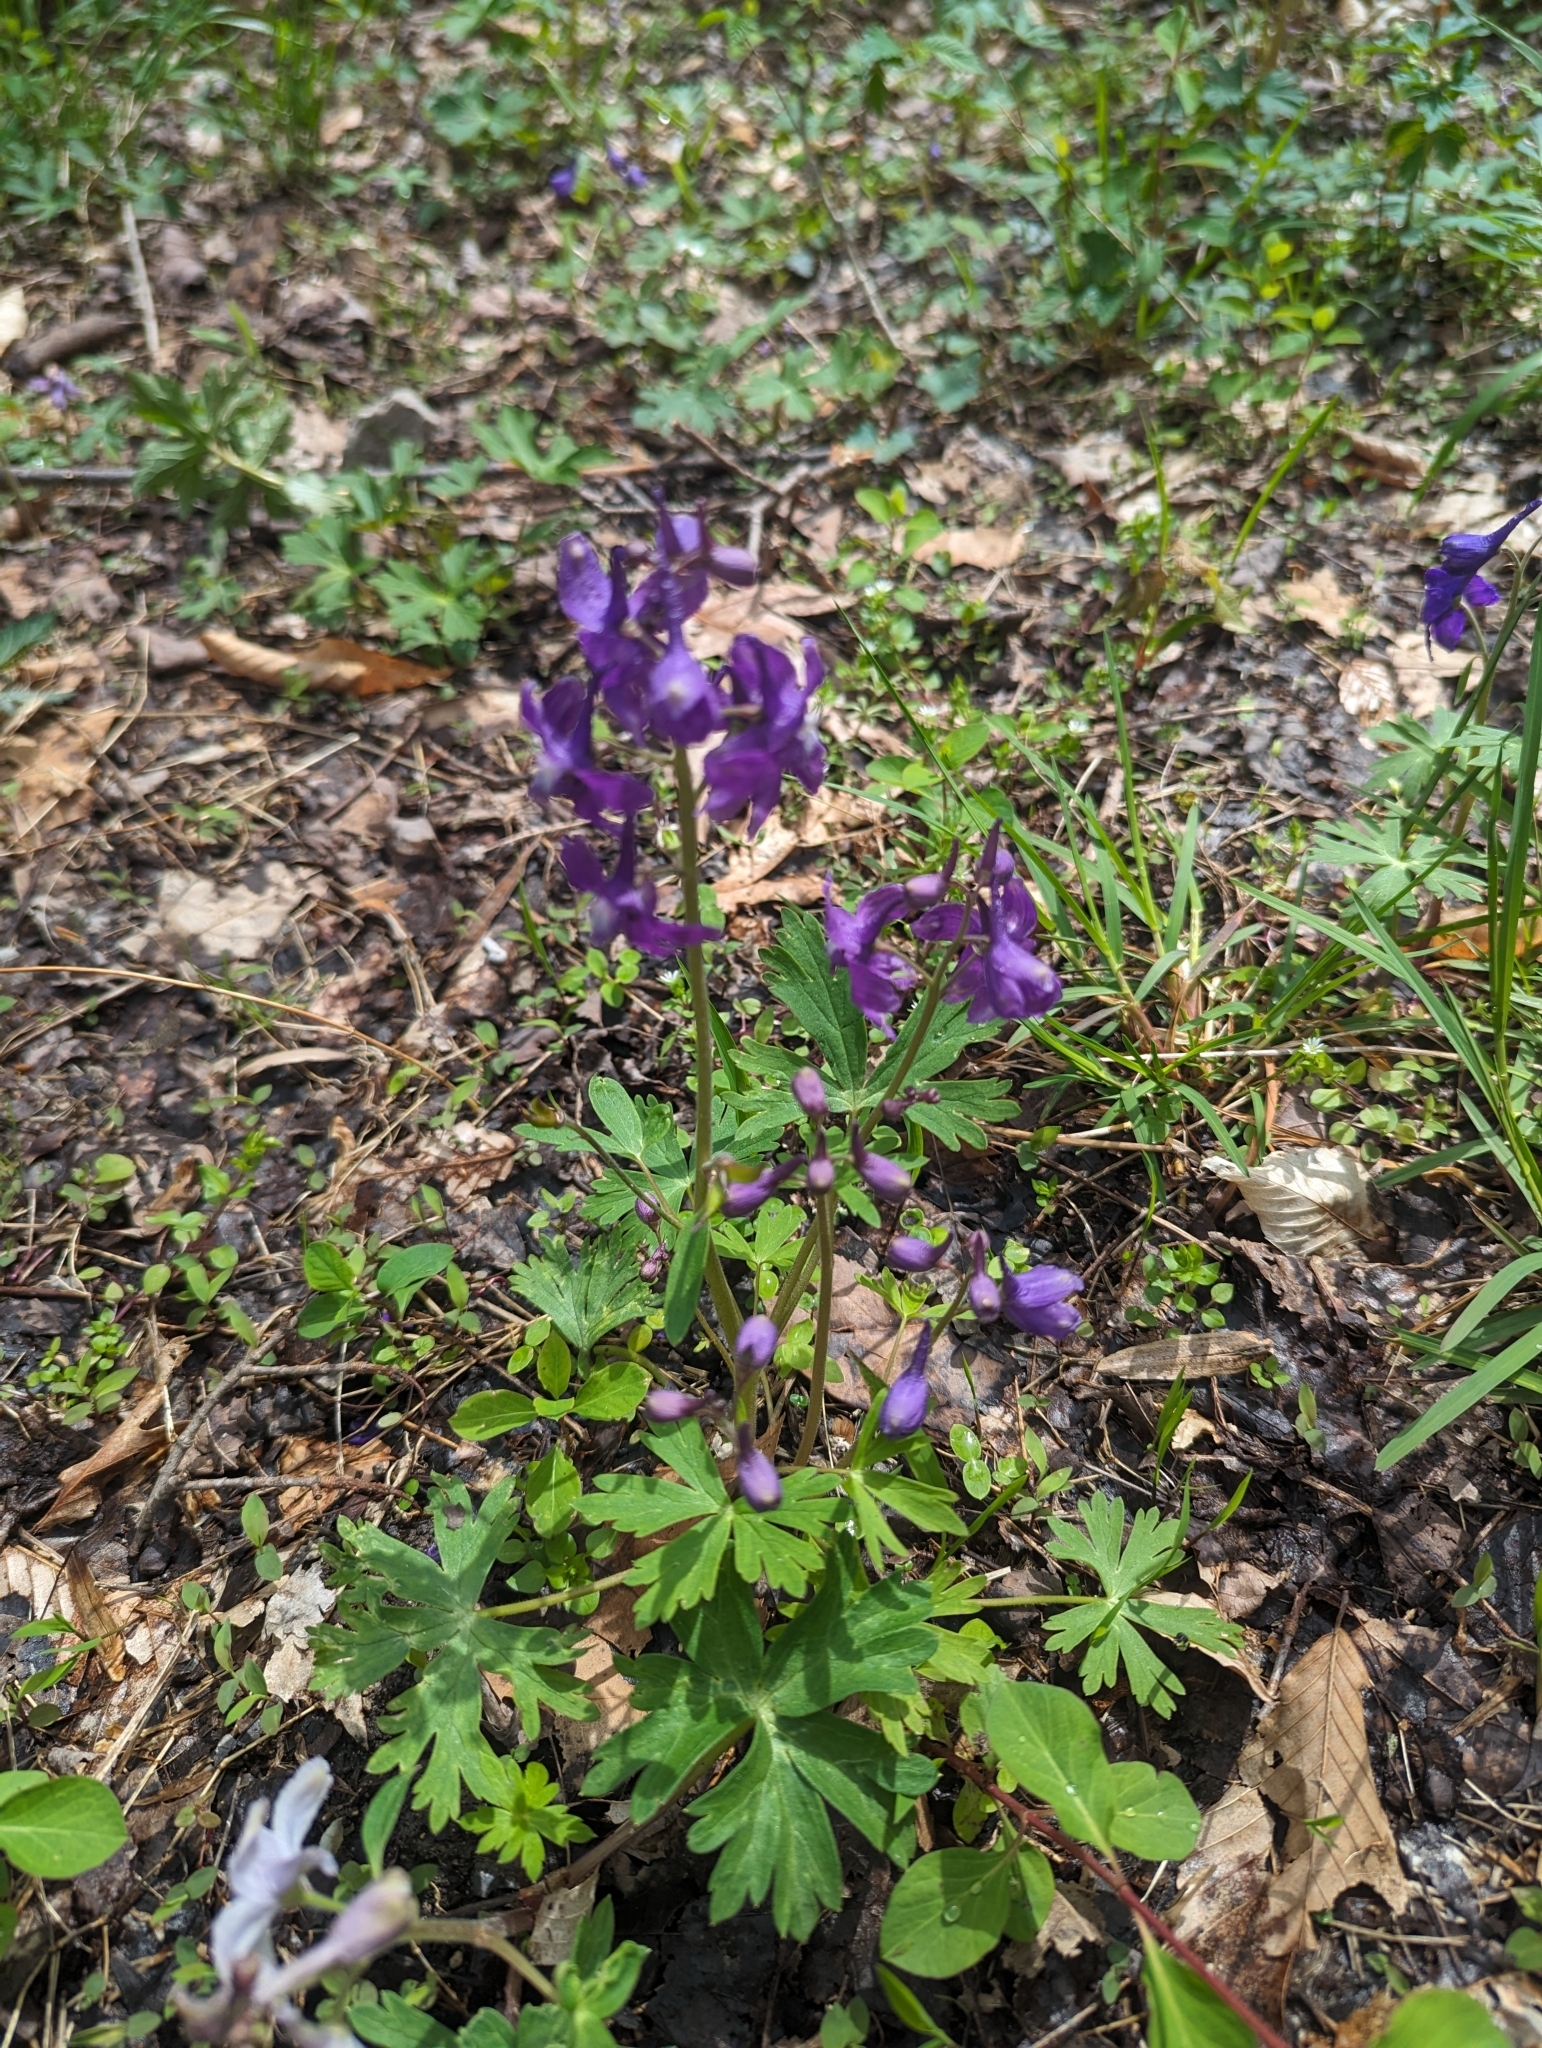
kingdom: Plantae
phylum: Tracheophyta
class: Magnoliopsida
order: Ranunculales
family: Ranunculaceae
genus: Delphinium
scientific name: Delphinium tricorne
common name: Dwarf larkspur
